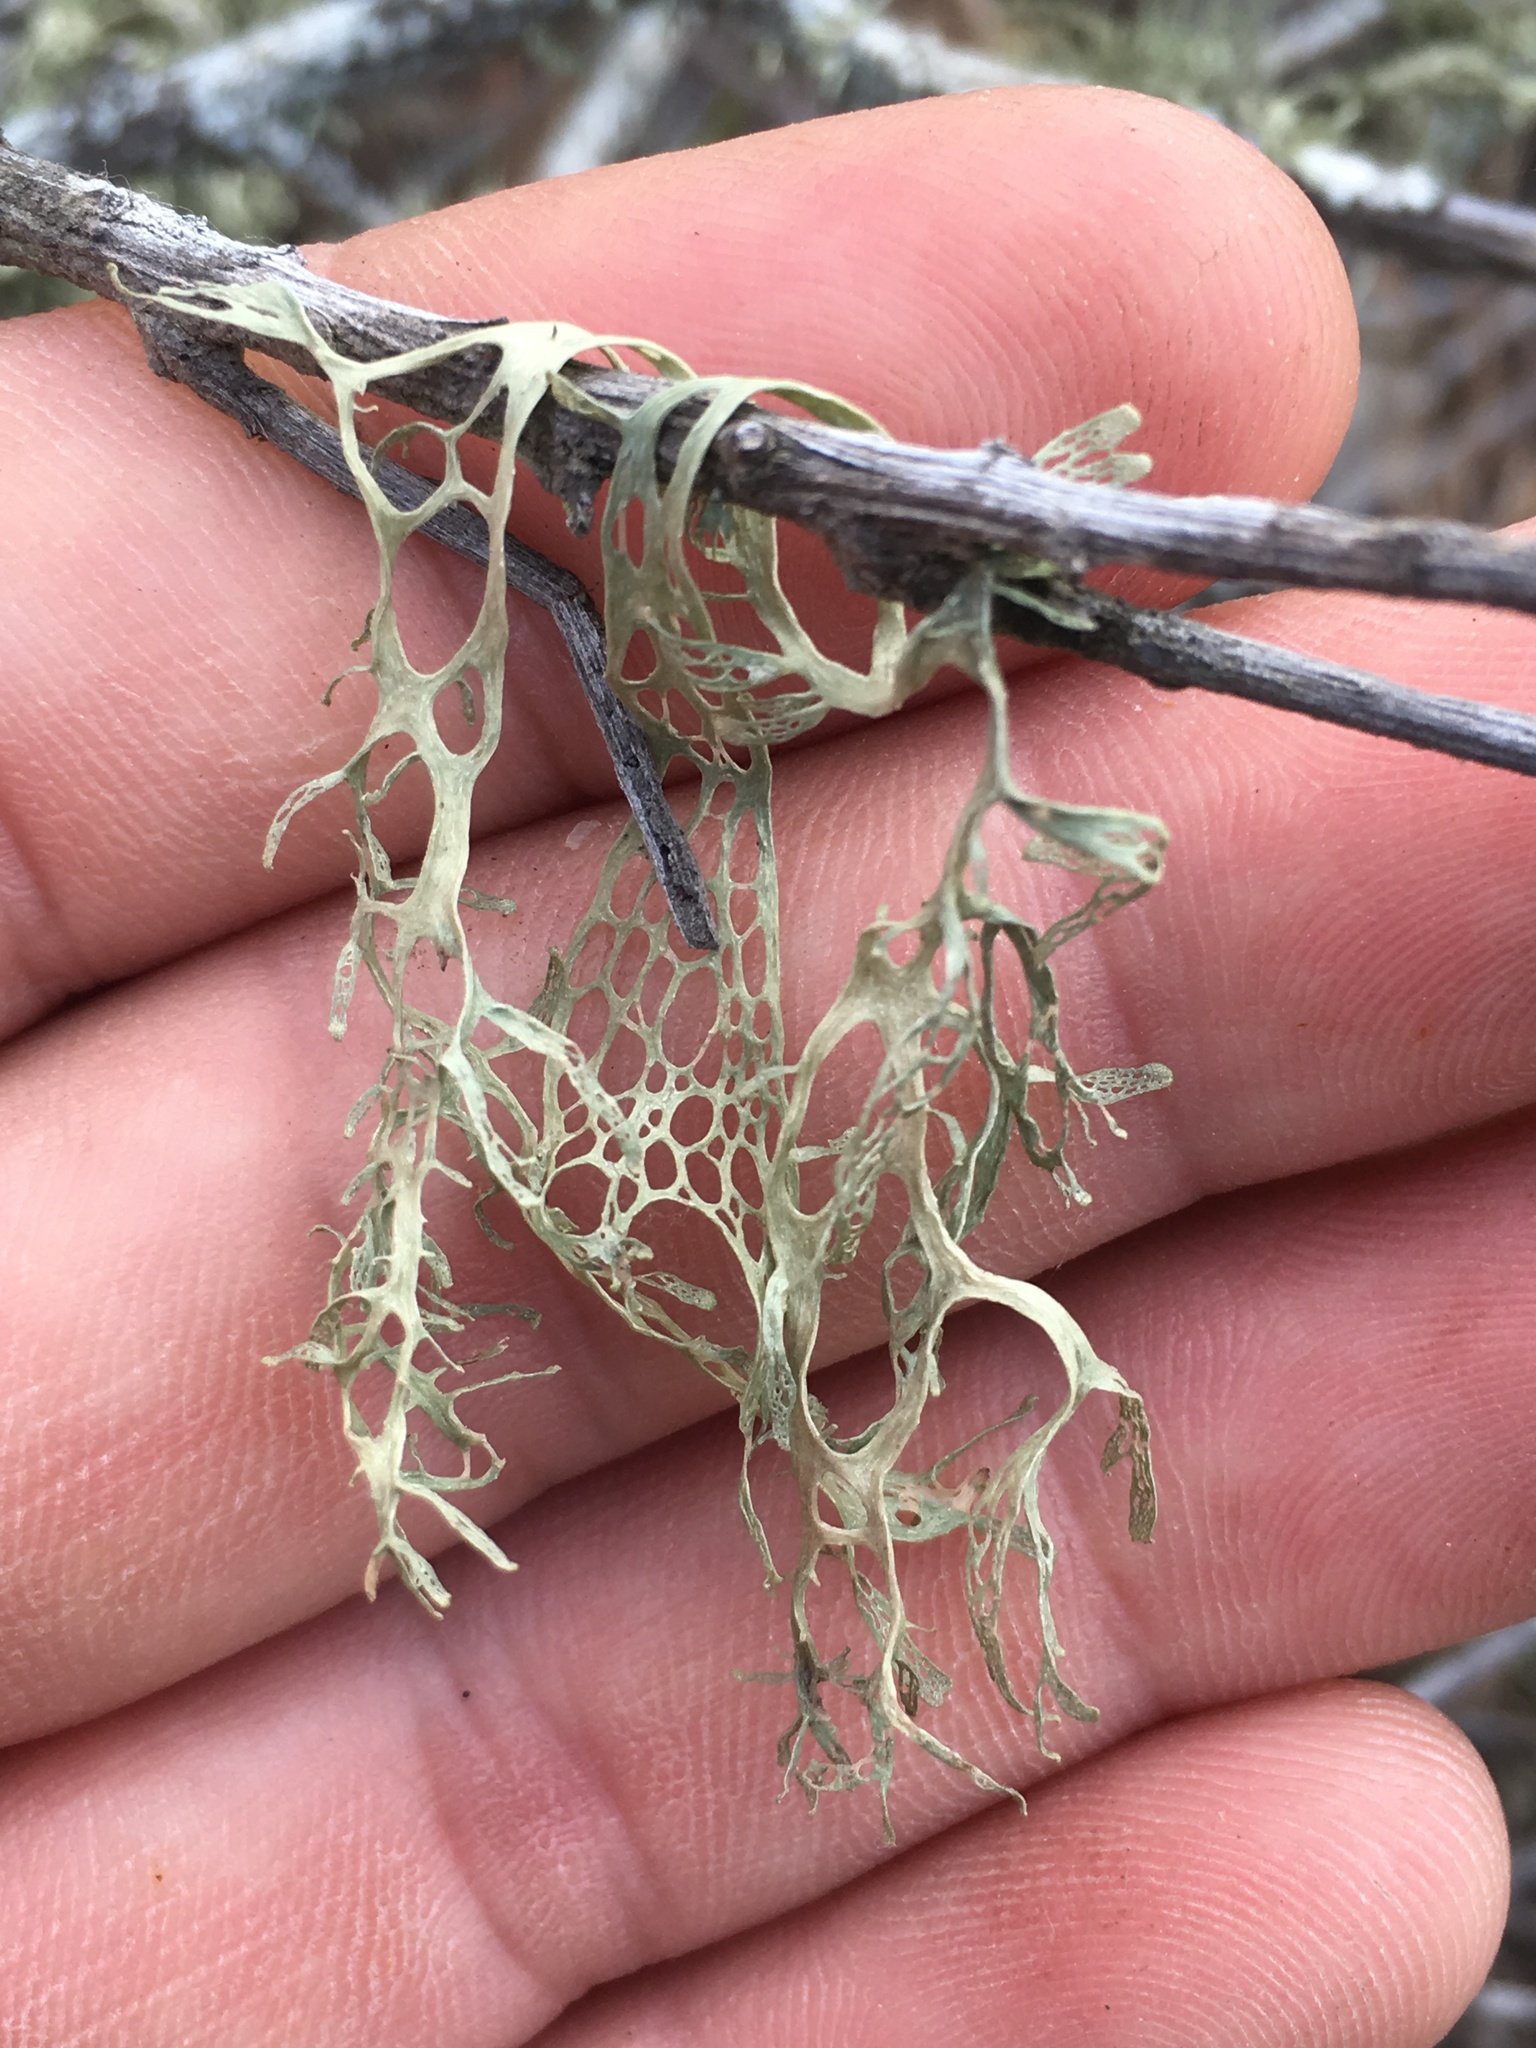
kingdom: Fungi
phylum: Ascomycota
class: Lecanoromycetes
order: Lecanorales
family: Ramalinaceae
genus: Ramalina
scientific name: Ramalina menziesii
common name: Lace lichen
